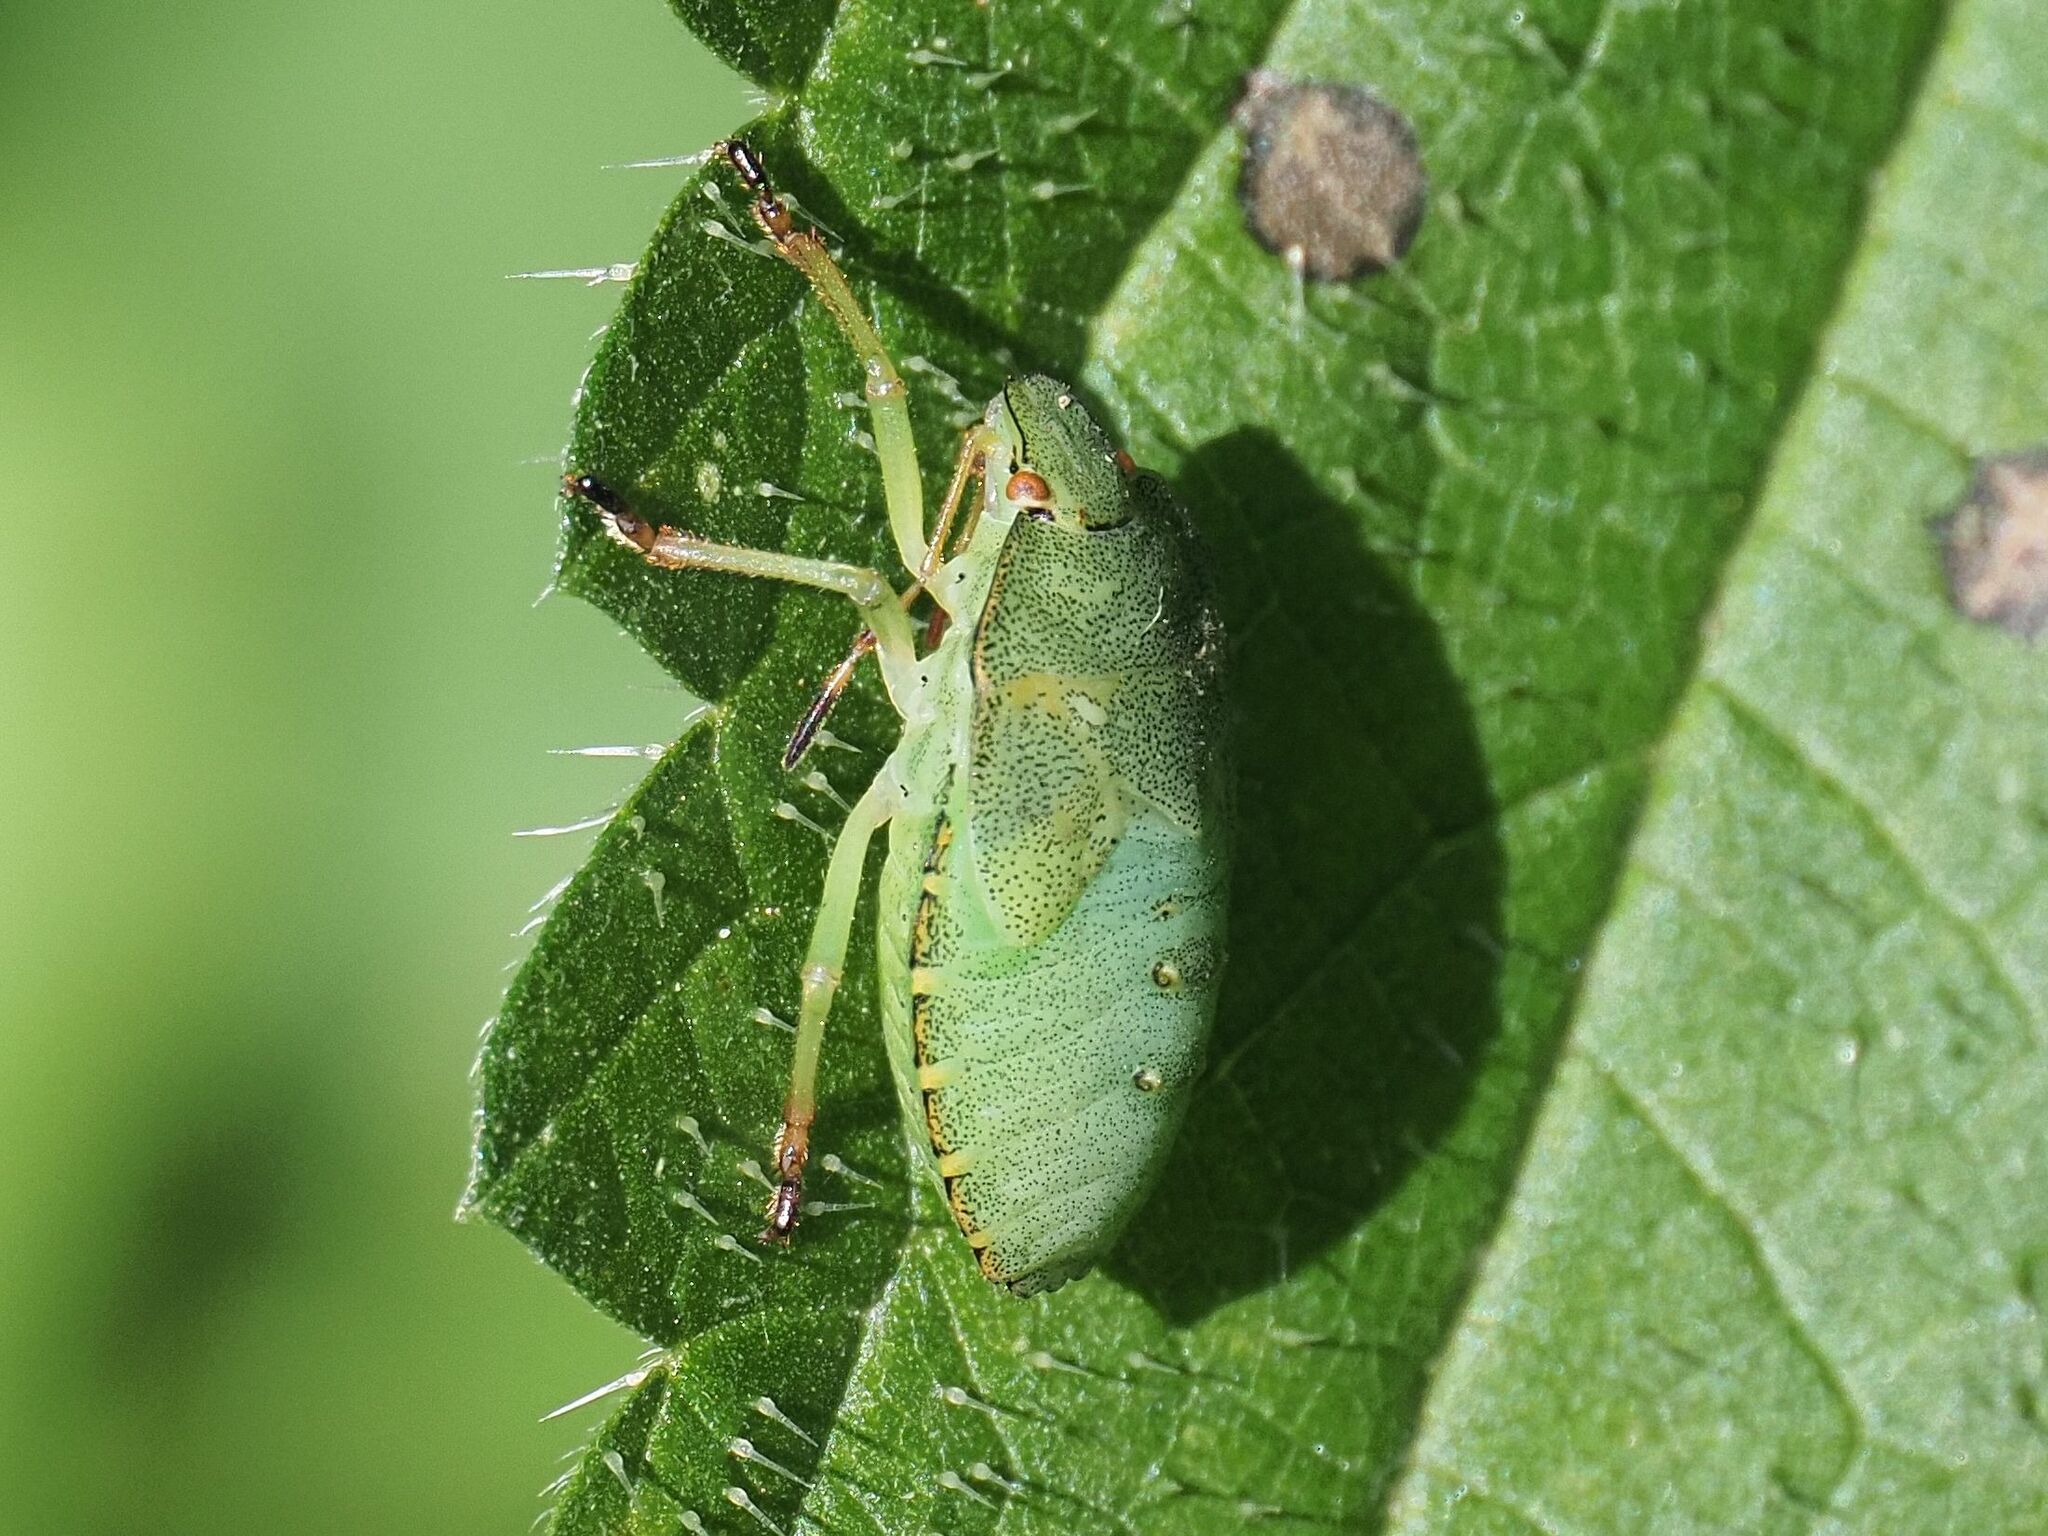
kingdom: Animalia
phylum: Arthropoda
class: Insecta
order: Hemiptera
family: Pentatomidae
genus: Palomena
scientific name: Palomena prasina
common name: Green shieldbug
